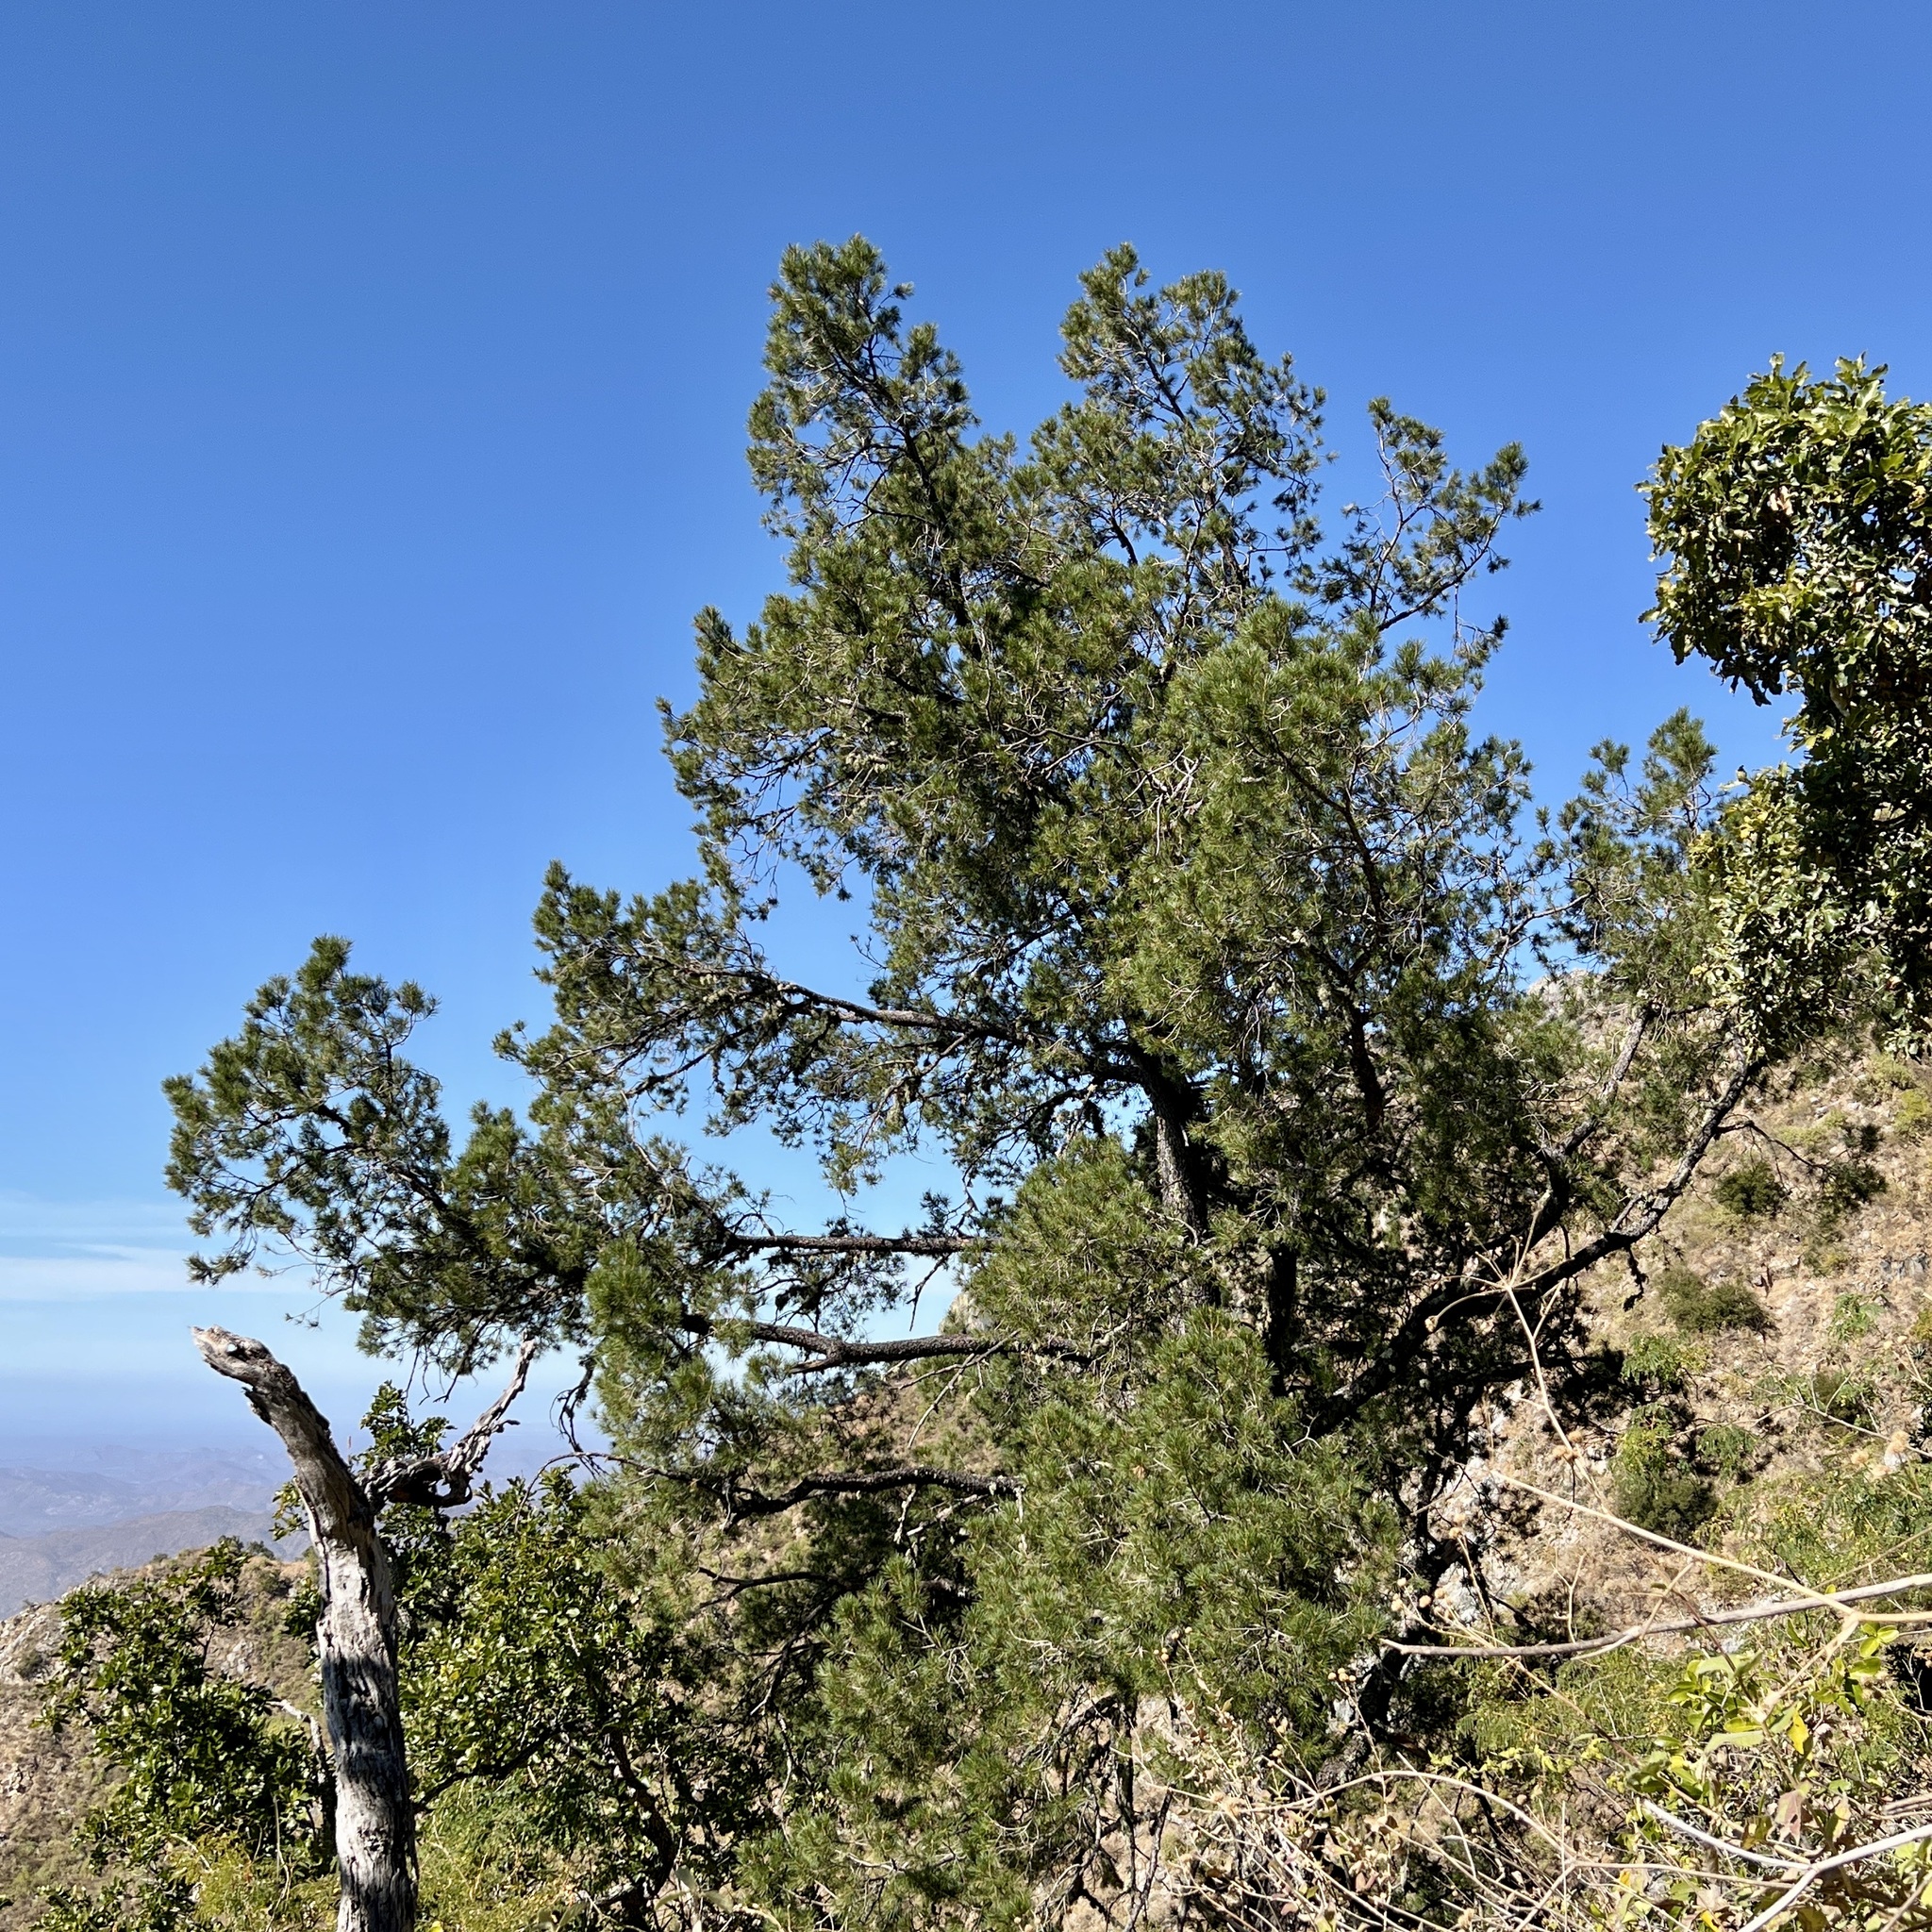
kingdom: Plantae
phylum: Tracheophyta
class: Pinopsida
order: Pinales
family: Pinaceae
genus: Pinus
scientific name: Pinus cembroides
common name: Mexican nut pine
